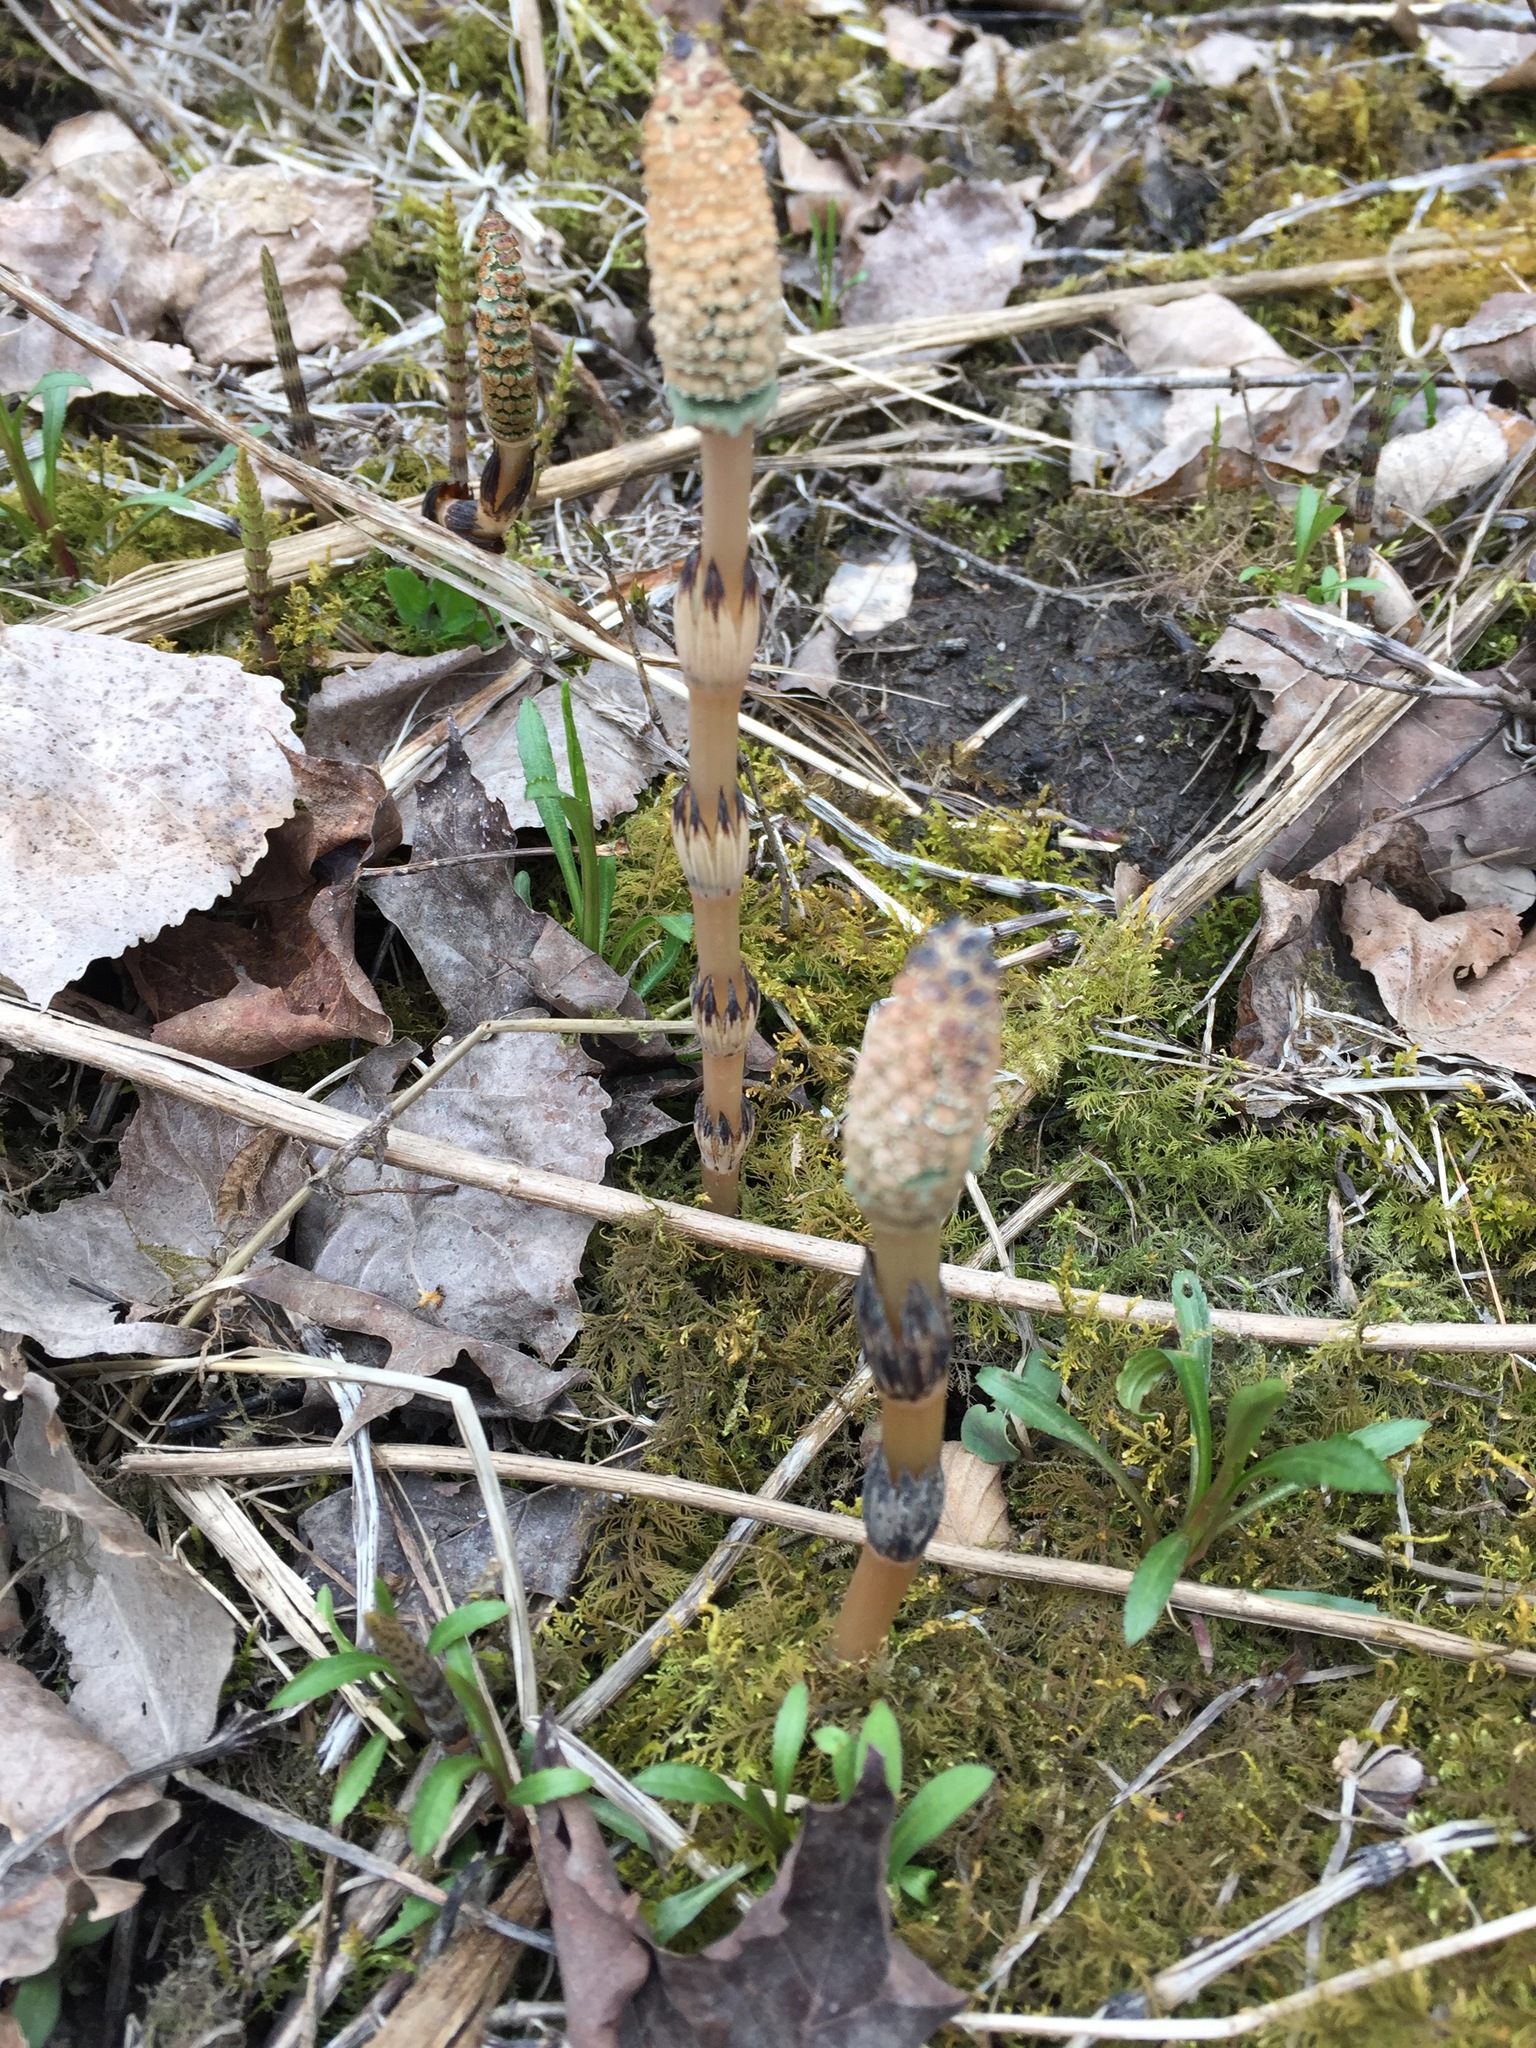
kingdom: Plantae
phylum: Tracheophyta
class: Polypodiopsida
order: Equisetales
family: Equisetaceae
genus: Equisetum
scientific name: Equisetum arvense
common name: Field horsetail
